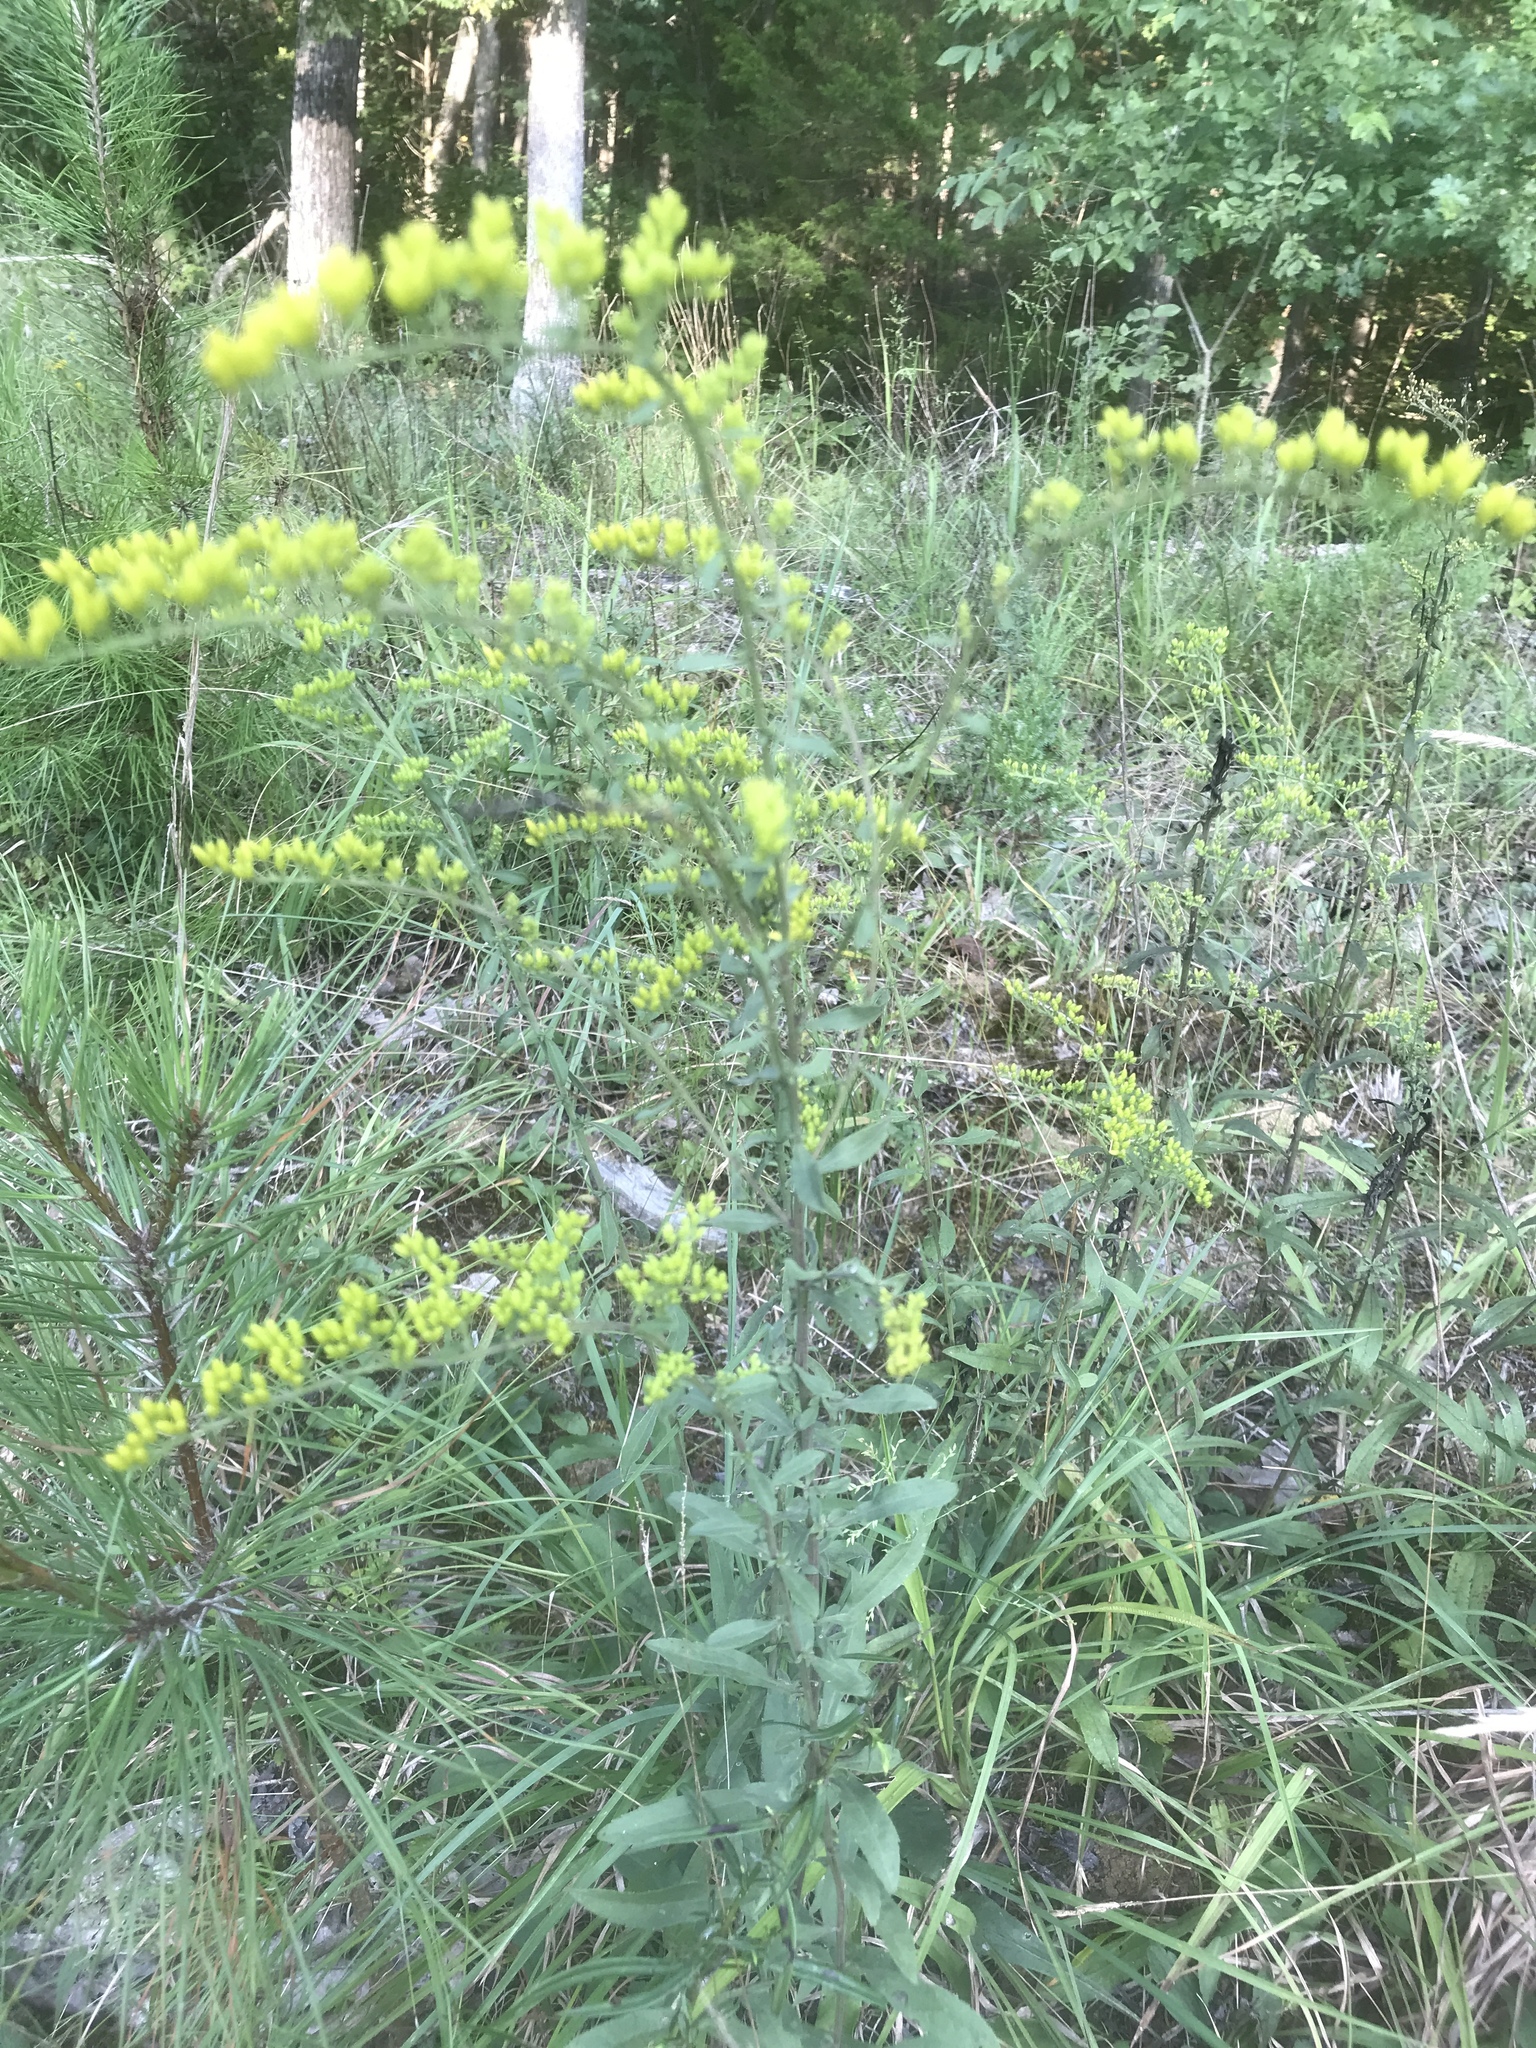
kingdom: Plantae
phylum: Tracheophyta
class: Magnoliopsida
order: Asterales
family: Asteraceae
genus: Solidago
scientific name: Solidago nemoralis
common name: Grey goldenrod
